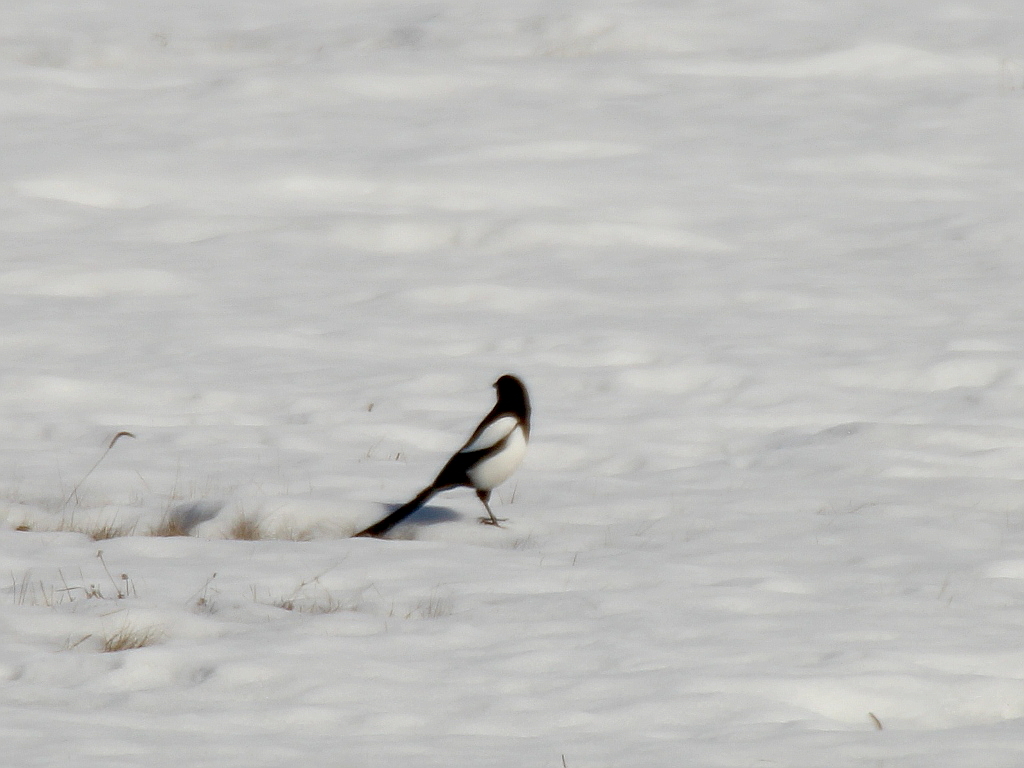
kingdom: Animalia
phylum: Chordata
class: Aves
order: Passeriformes
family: Corvidae
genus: Pica
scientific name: Pica pica
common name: Eurasian magpie
